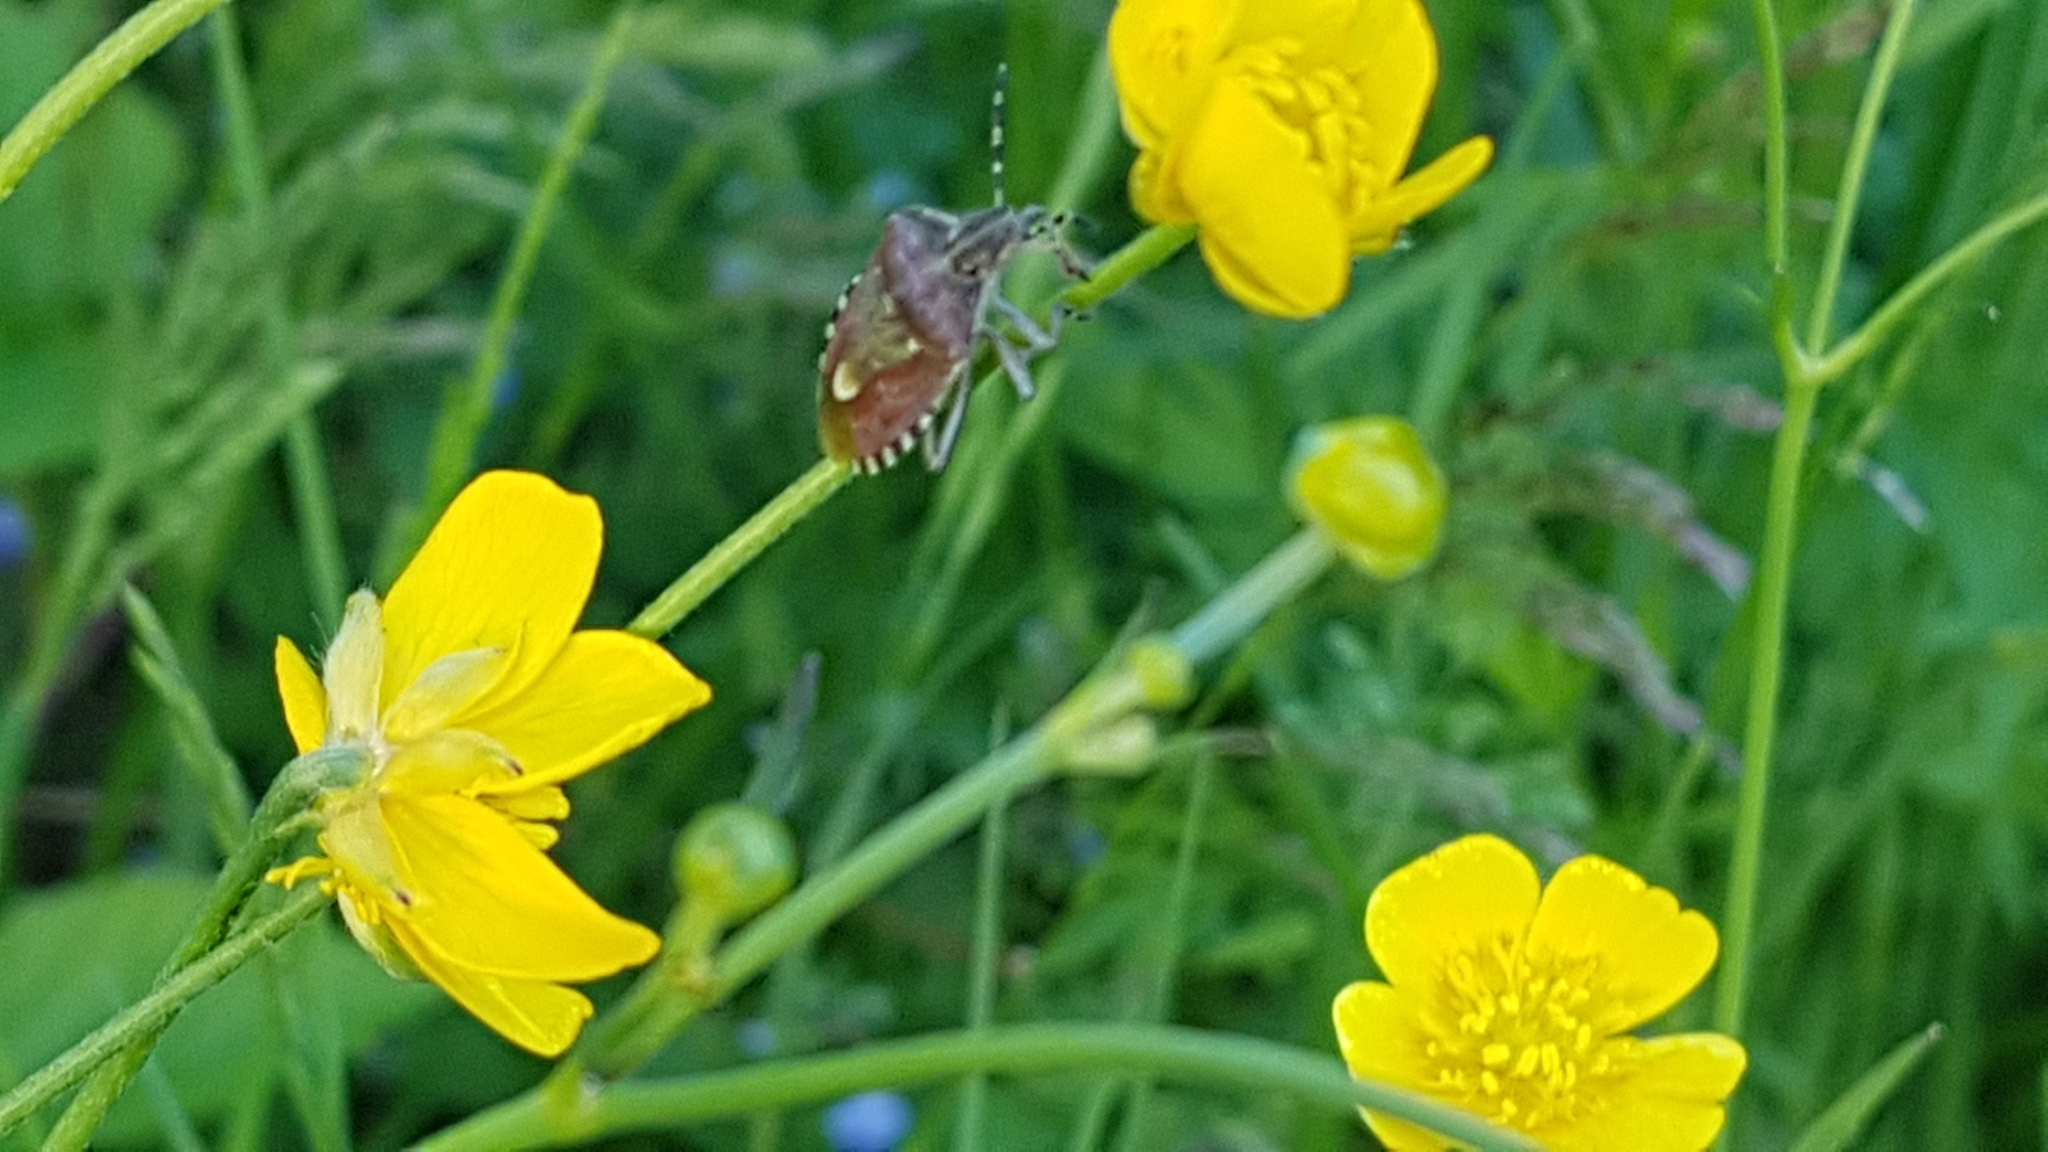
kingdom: Animalia
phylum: Arthropoda
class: Insecta
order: Hemiptera
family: Pentatomidae
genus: Dolycoris
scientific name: Dolycoris baccarum
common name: Sloe bug
